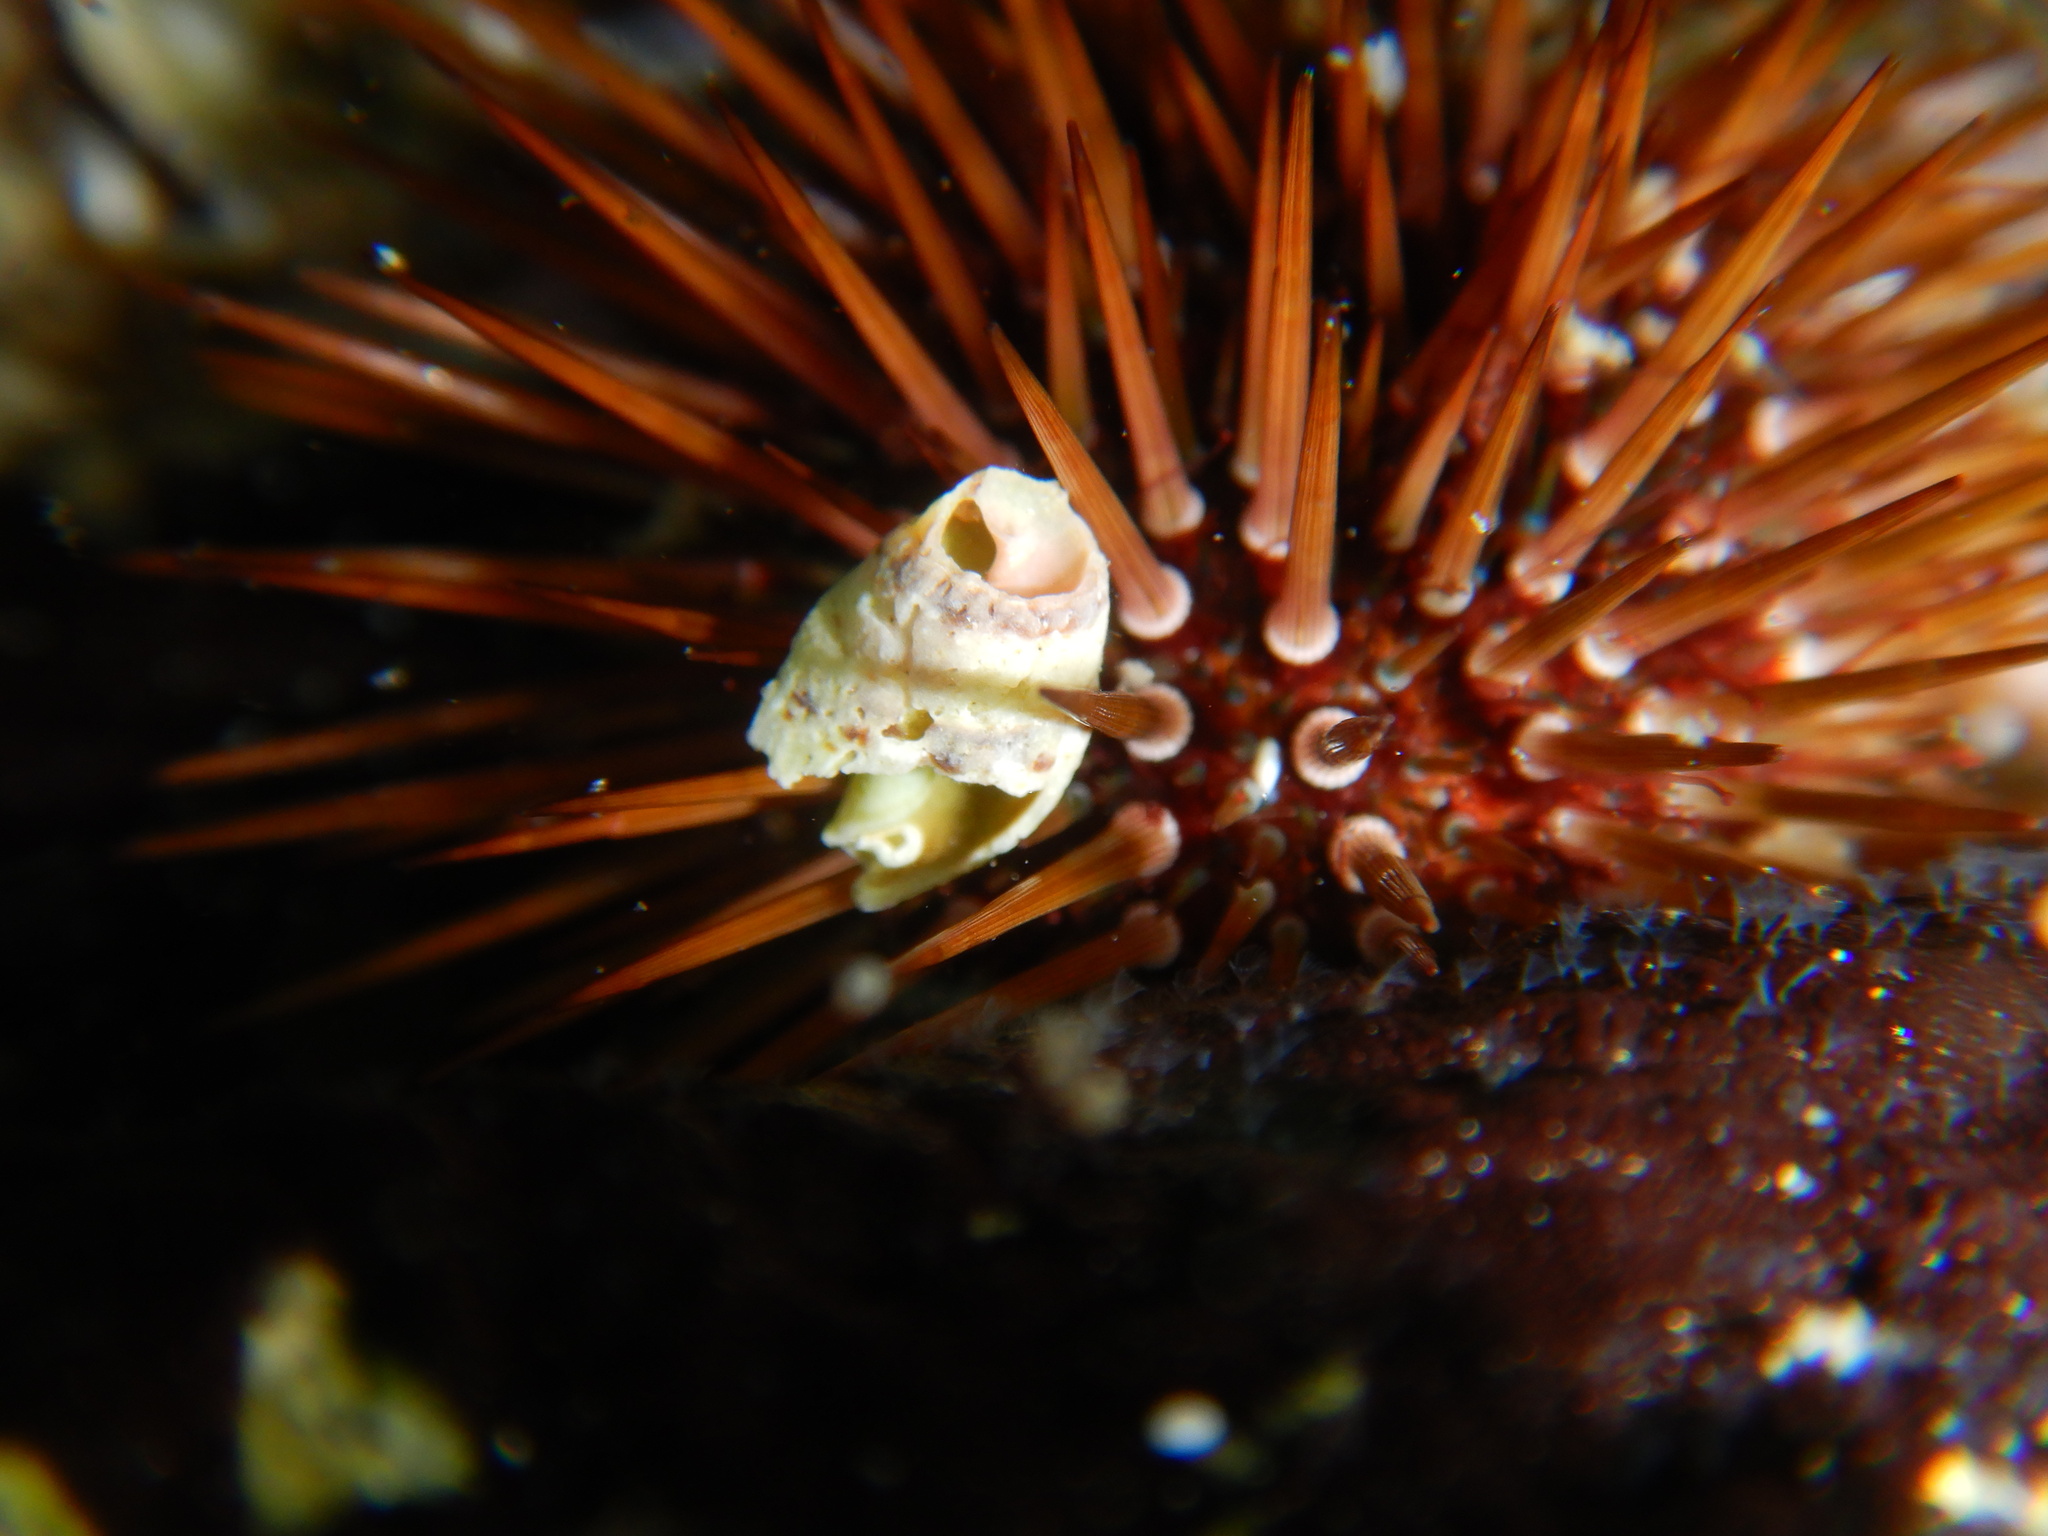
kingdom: Animalia
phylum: Echinodermata
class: Echinoidea
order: Camarodonta
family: Parechinidae
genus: Paracentrotus
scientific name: Paracentrotus lividus
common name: Purple sea urchin
